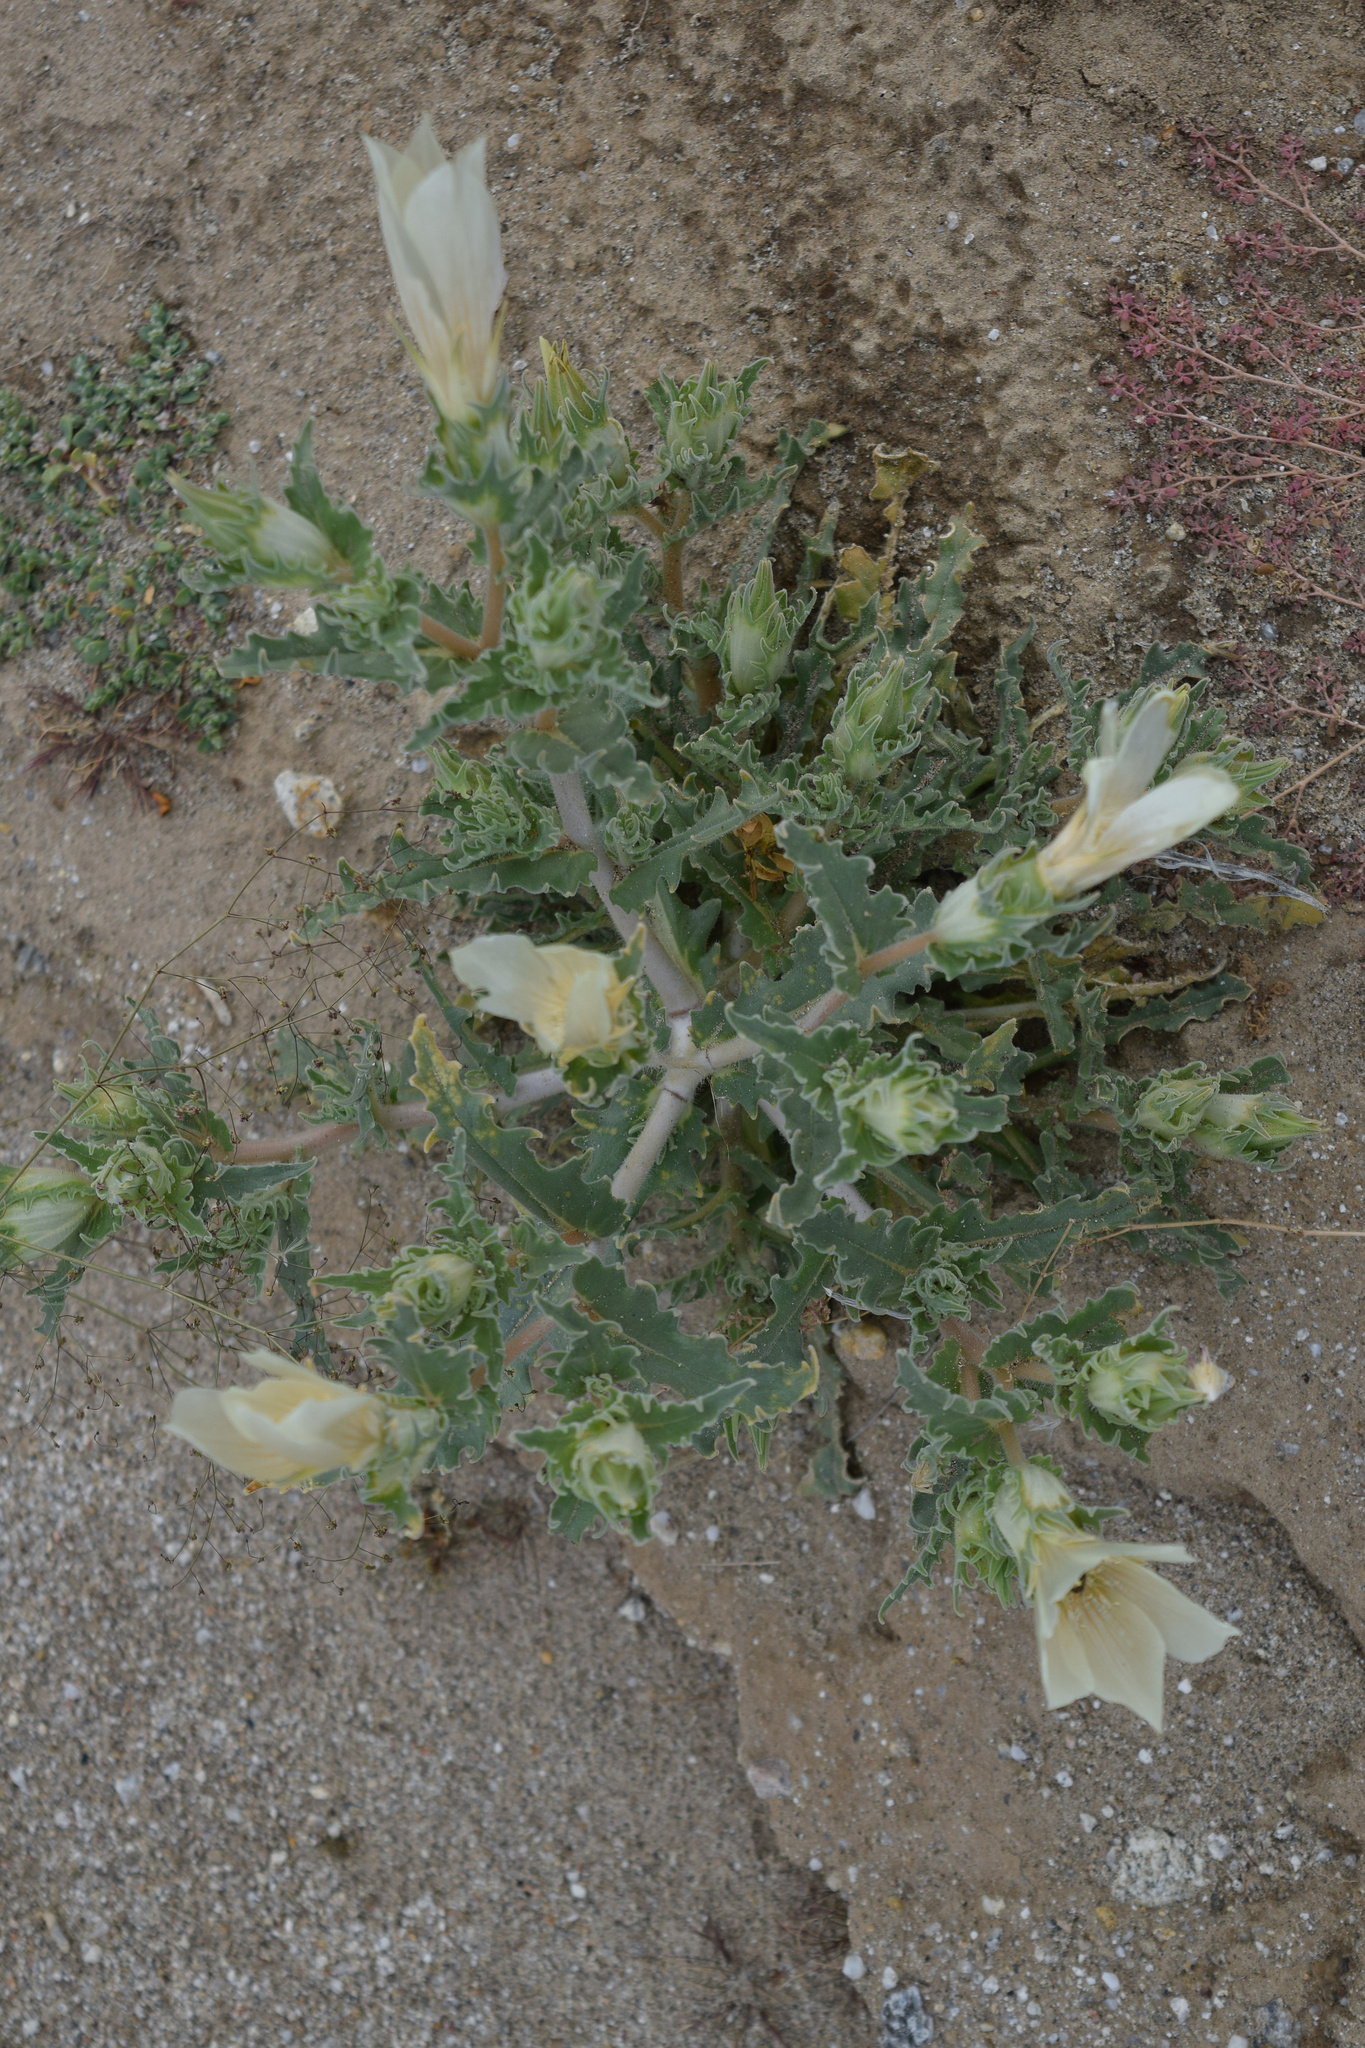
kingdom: Plantae
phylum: Tracheophyta
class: Magnoliopsida
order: Cornales
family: Loasaceae
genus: Mentzelia
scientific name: Mentzelia involucrata
